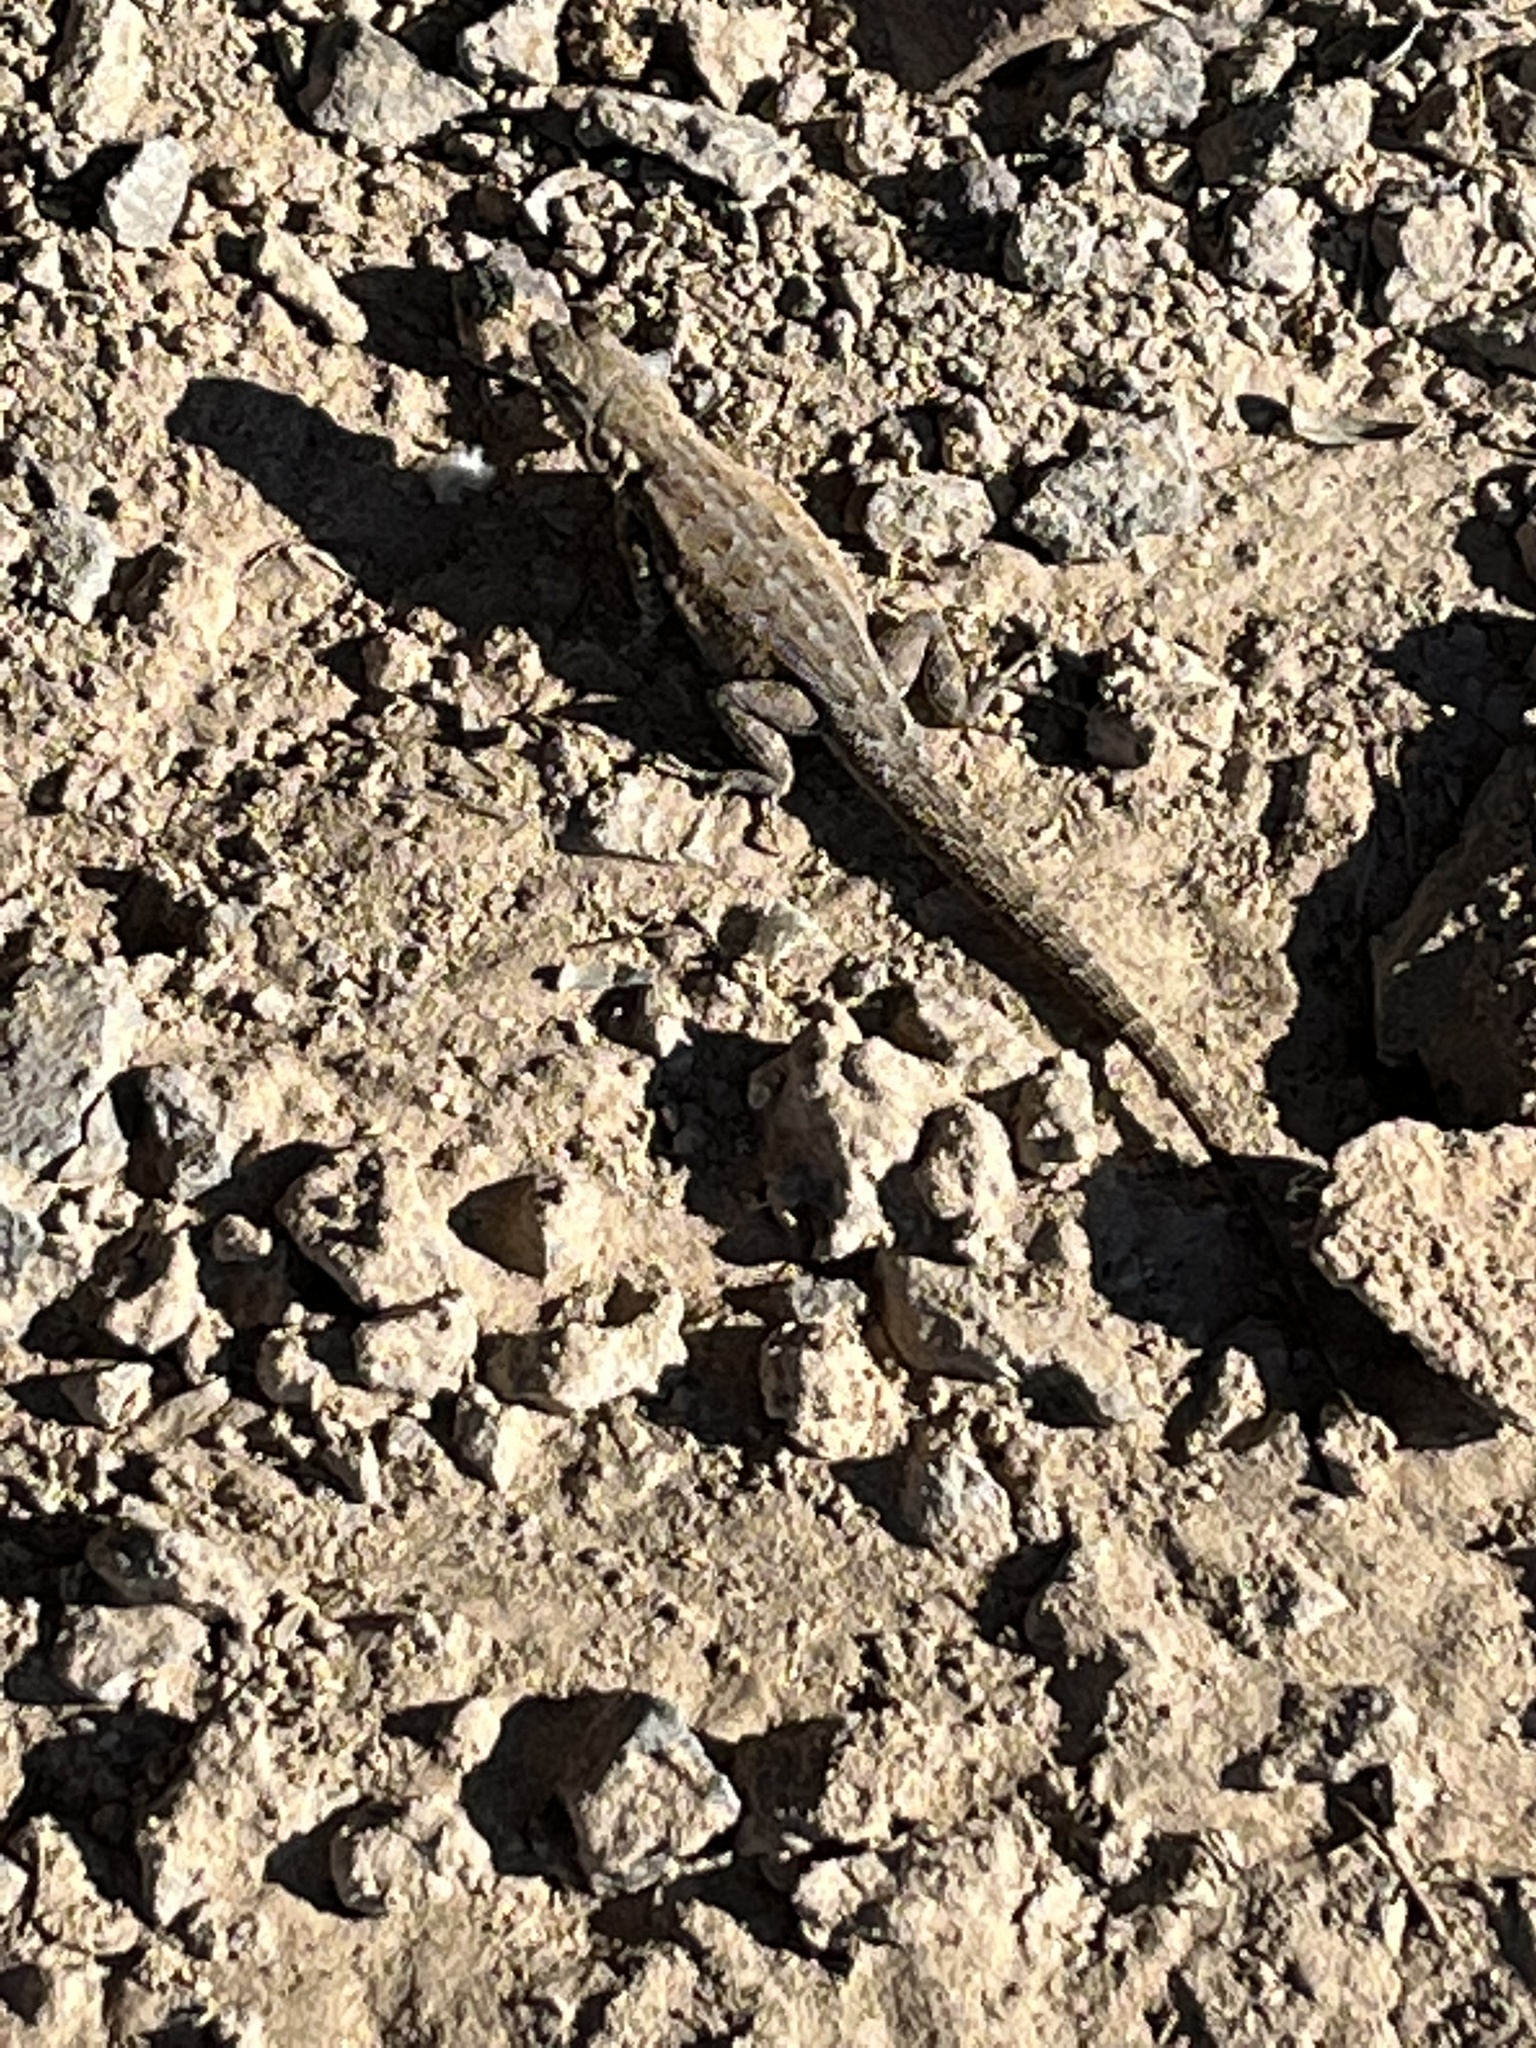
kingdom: Animalia
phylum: Chordata
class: Squamata
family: Phrynosomatidae
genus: Uta
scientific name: Uta stansburiana
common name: Side-blotched lizard
